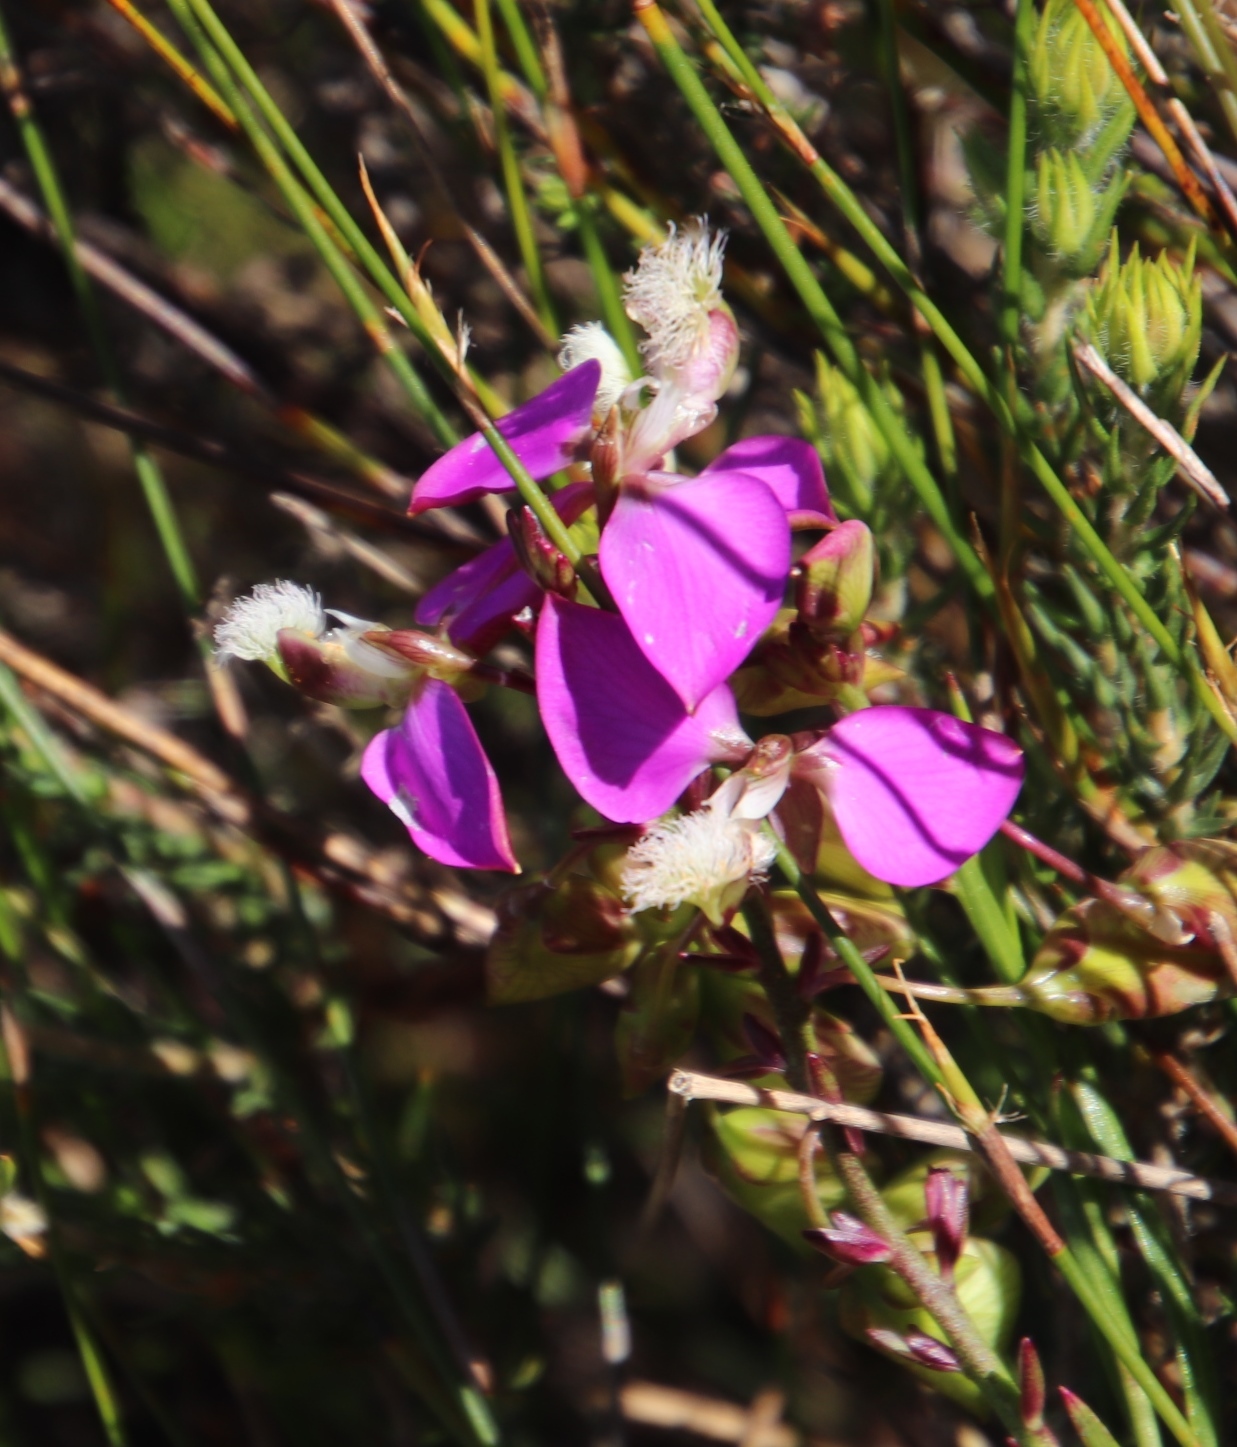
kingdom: Plantae
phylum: Tracheophyta
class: Magnoliopsida
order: Fabales
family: Polygalaceae
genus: Polygala
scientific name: Polygala bracteolata
